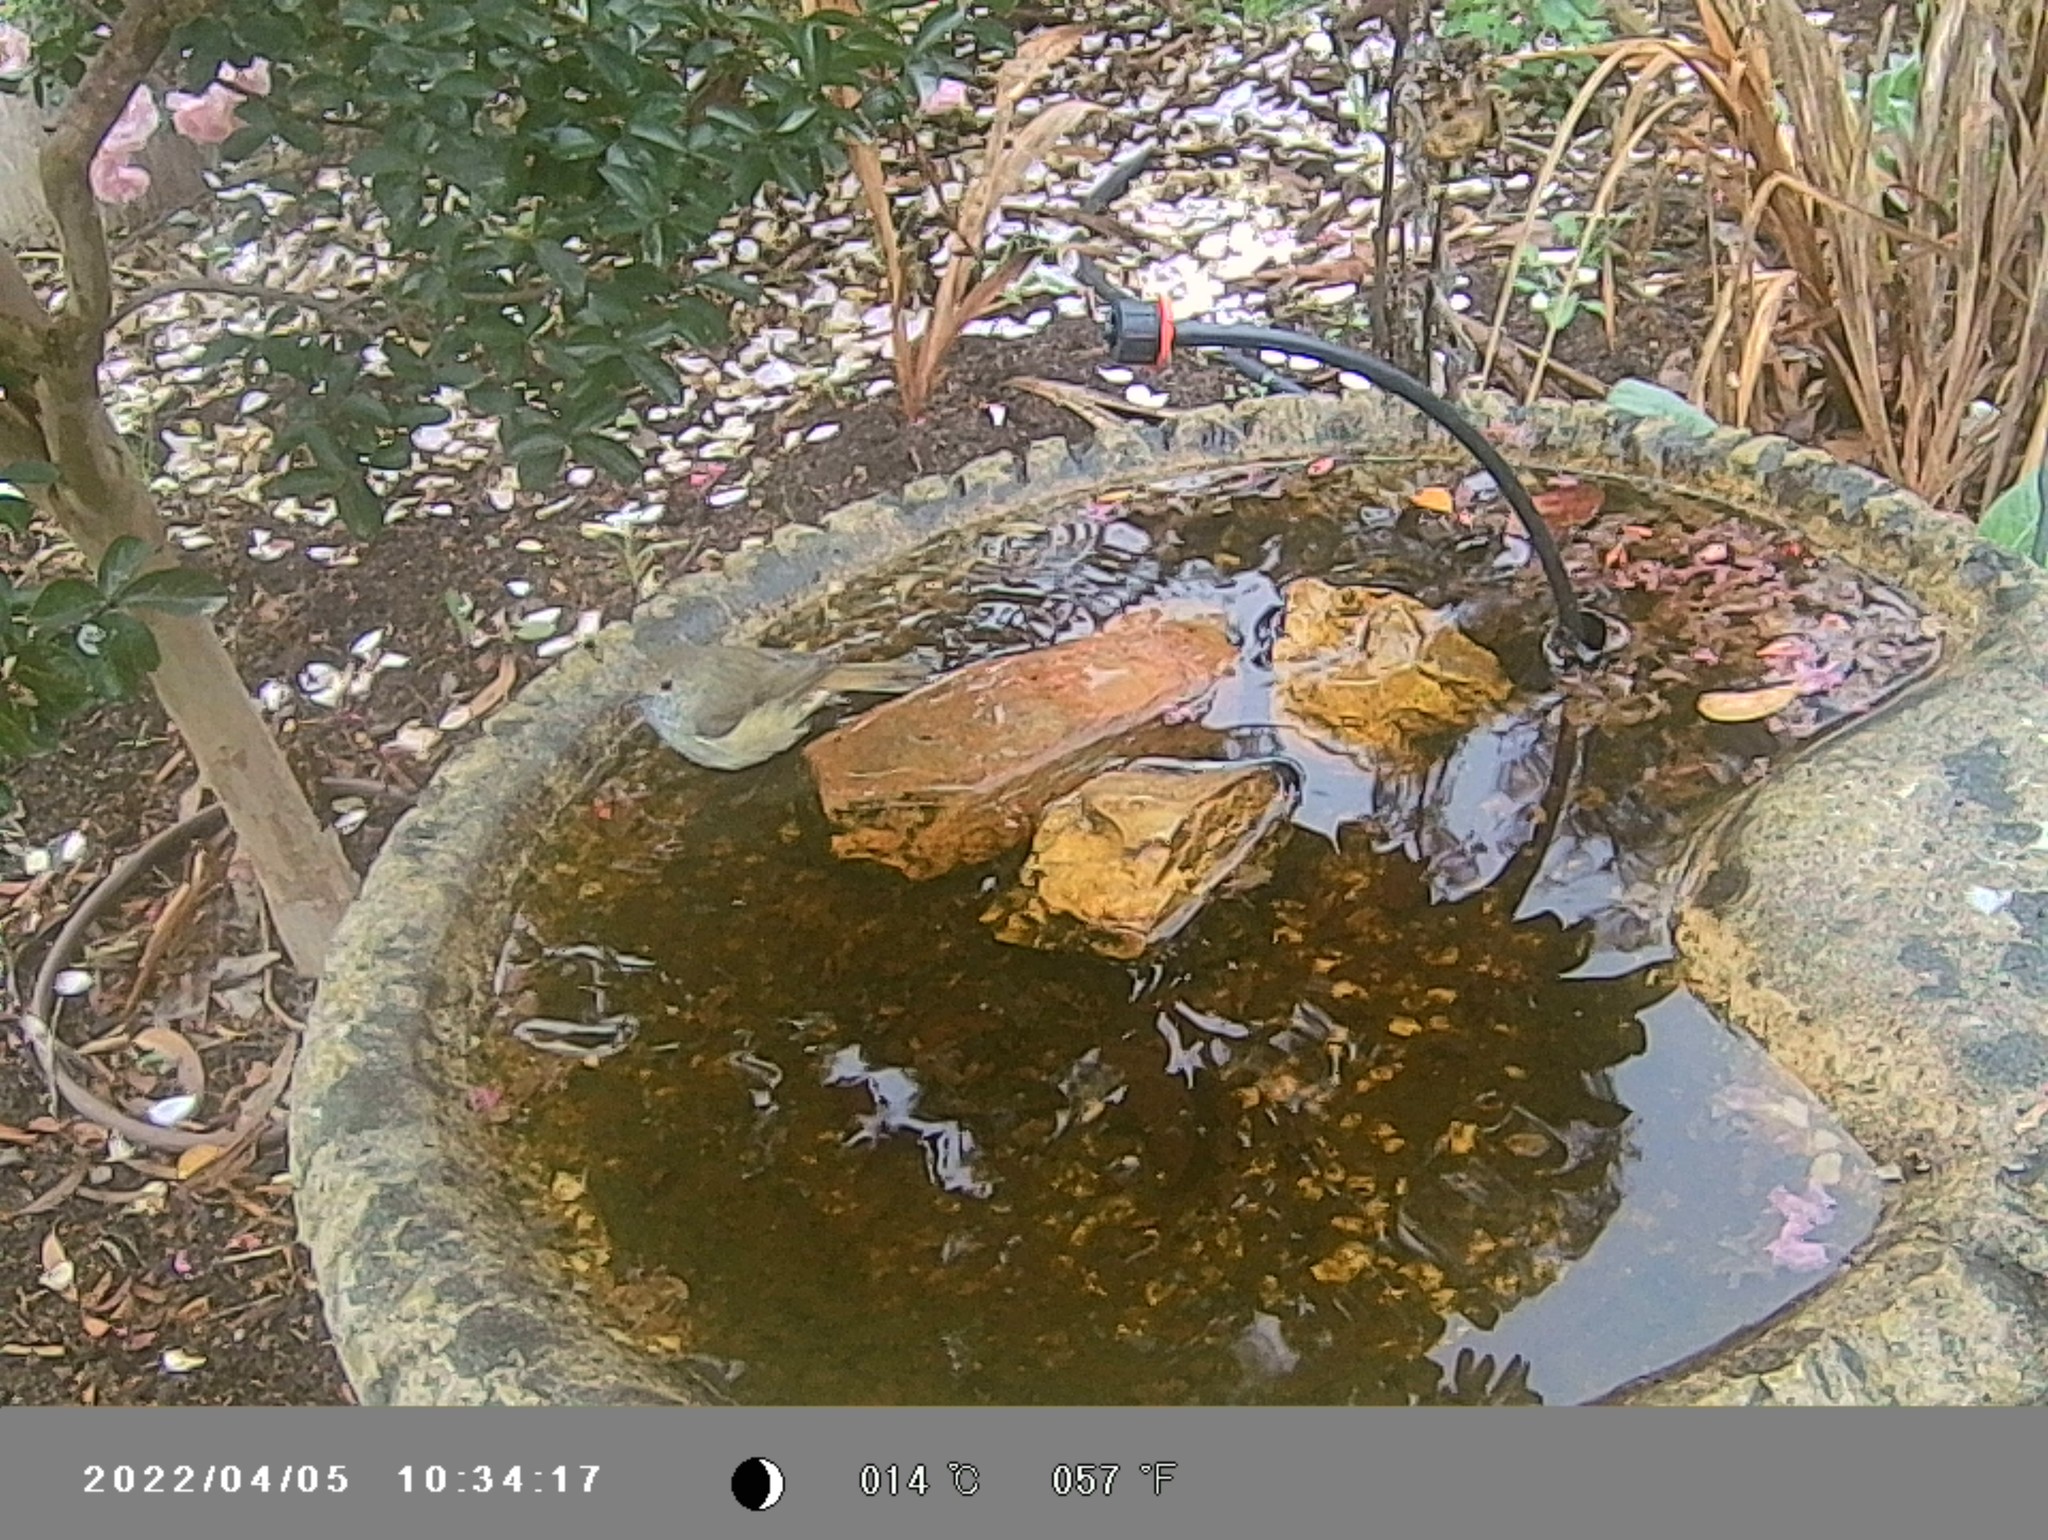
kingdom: Animalia
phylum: Chordata
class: Aves
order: Passeriformes
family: Acanthizidae
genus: Acanthiza
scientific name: Acanthiza pusilla
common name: Brown thornbill
